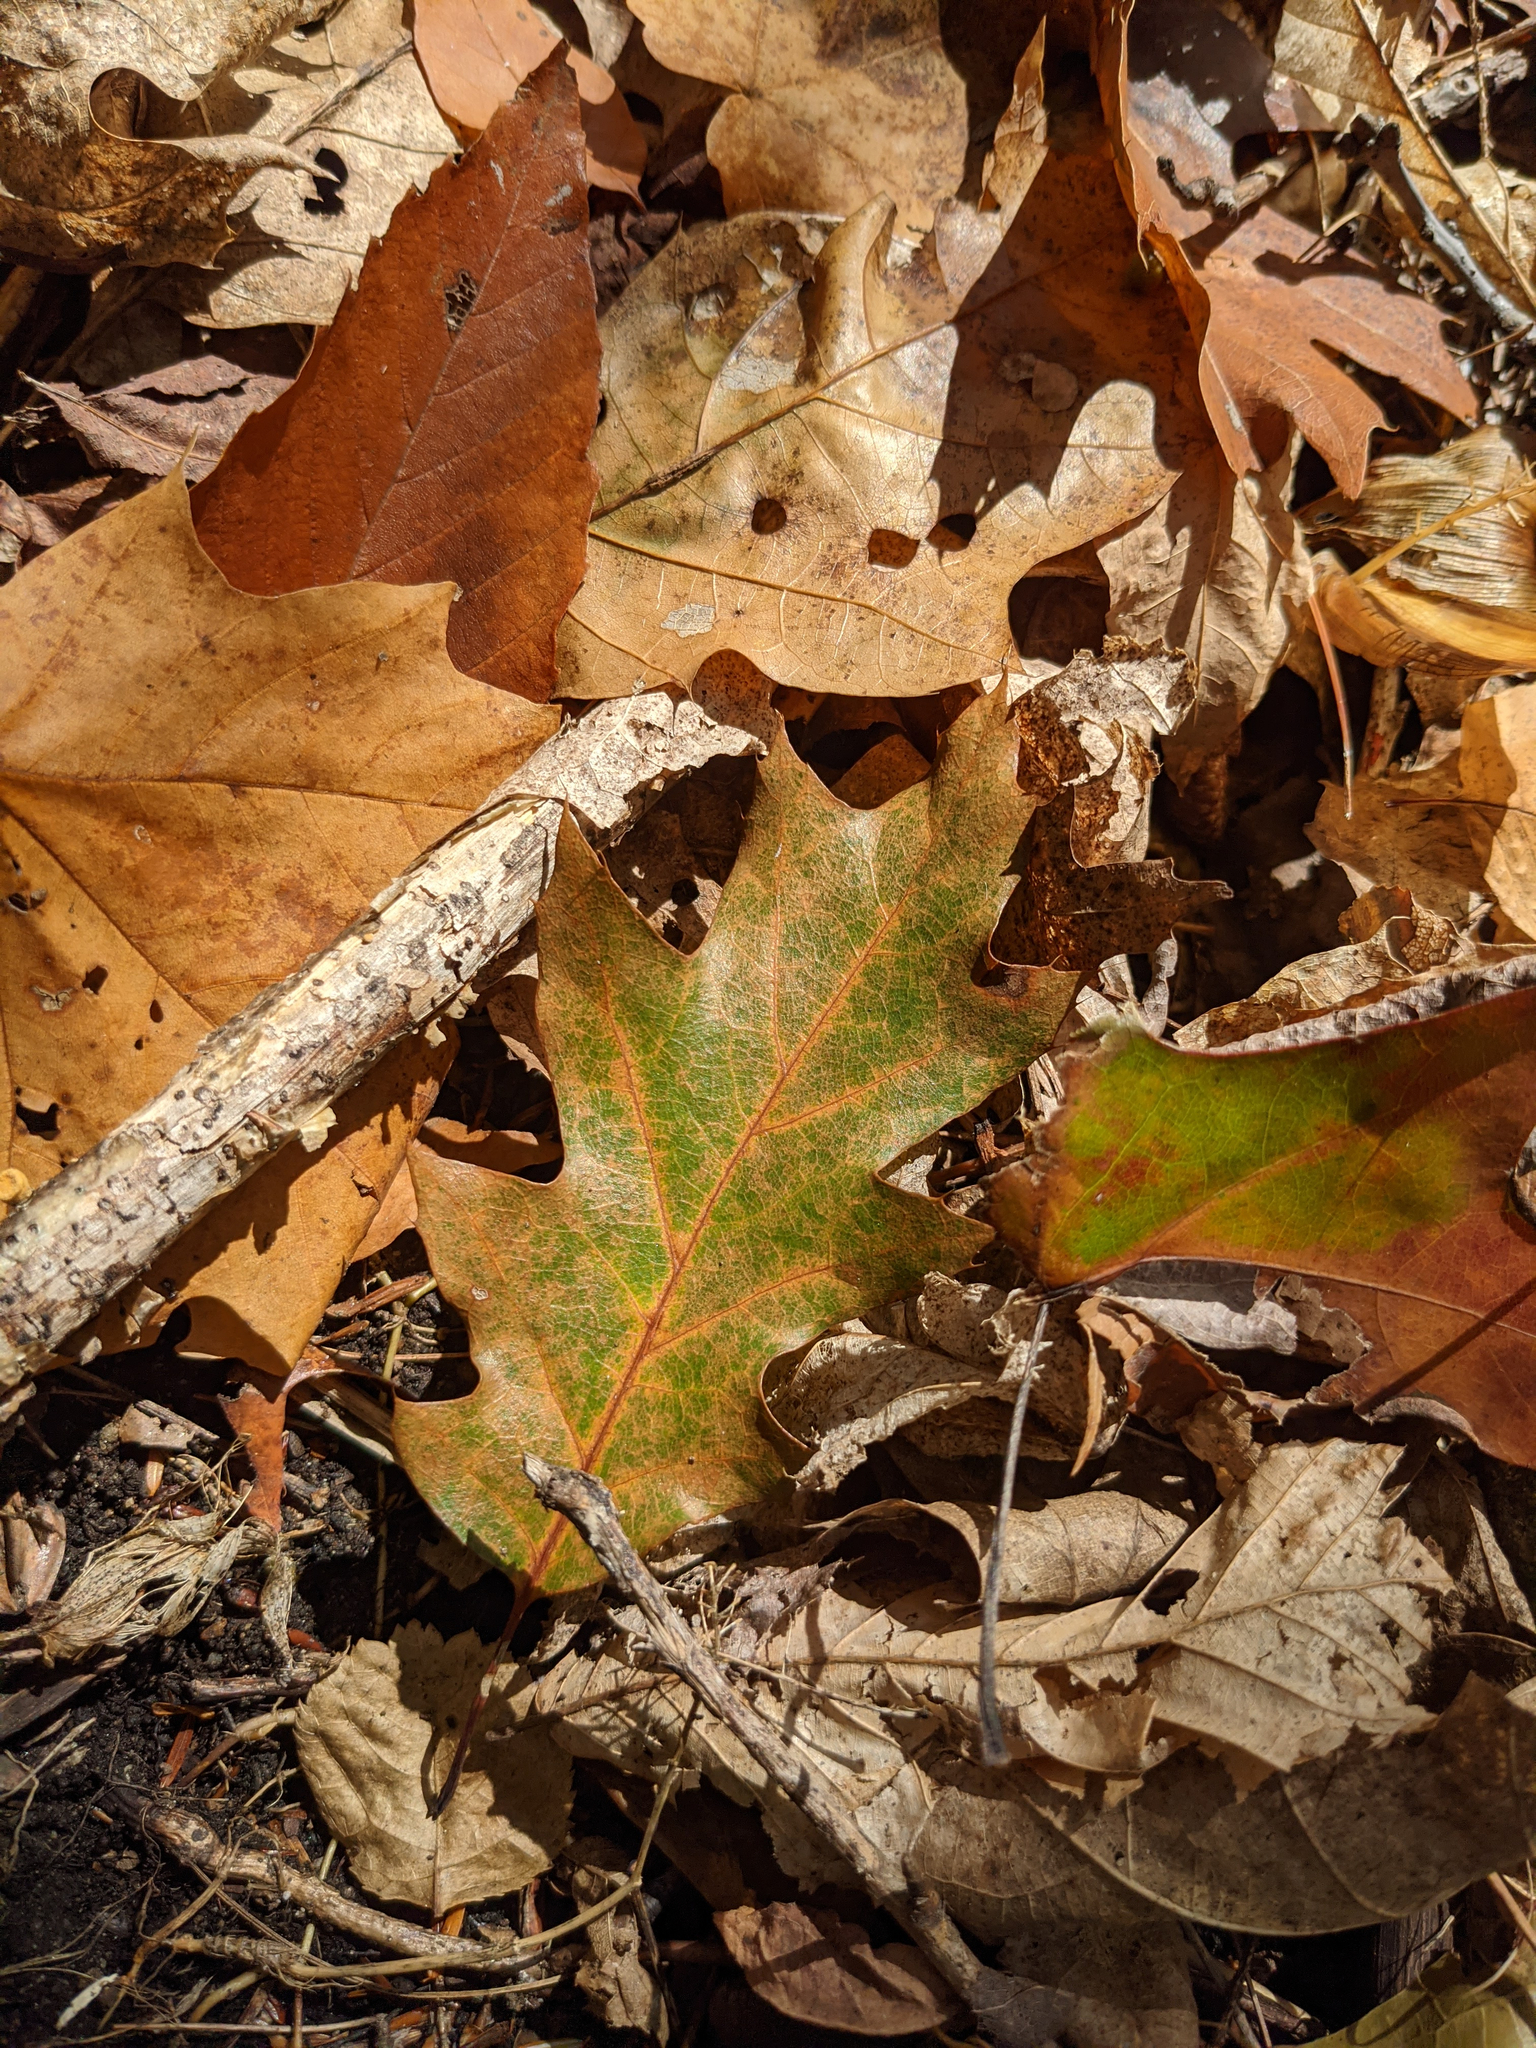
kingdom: Plantae
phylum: Tracheophyta
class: Magnoliopsida
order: Fagales
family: Fagaceae
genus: Quercus
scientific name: Quercus rubra
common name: Red oak
